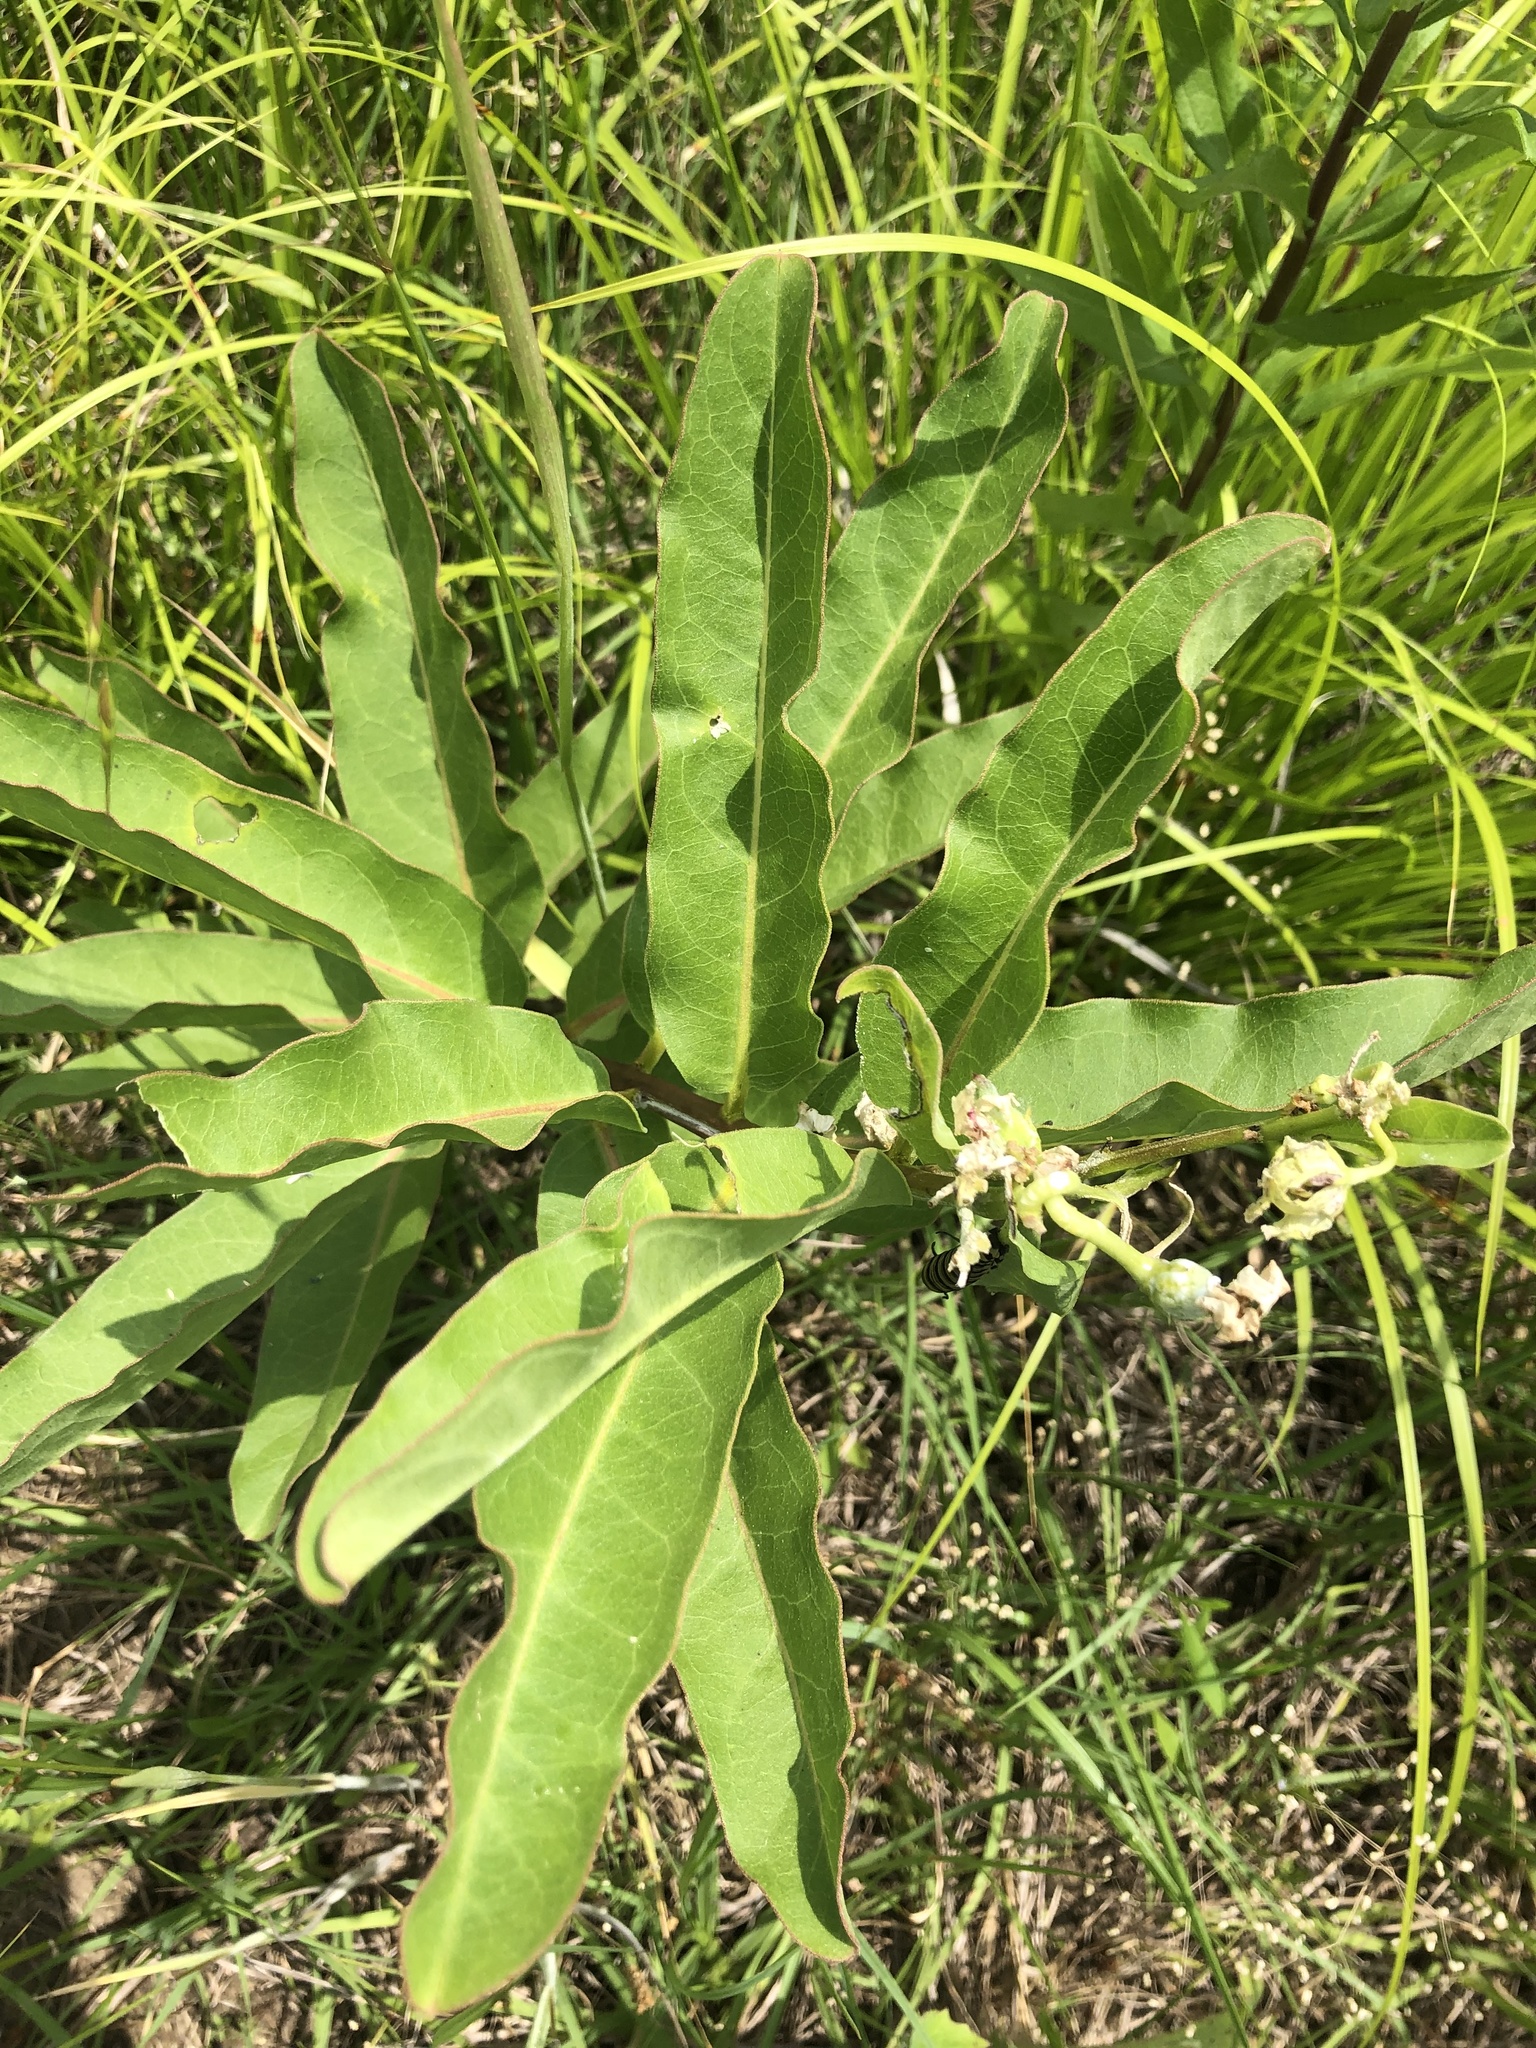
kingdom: Plantae
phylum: Tracheophyta
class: Magnoliopsida
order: Gentianales
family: Apocynaceae
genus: Asclepias
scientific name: Asclepias viridis
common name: Antelope-horns
